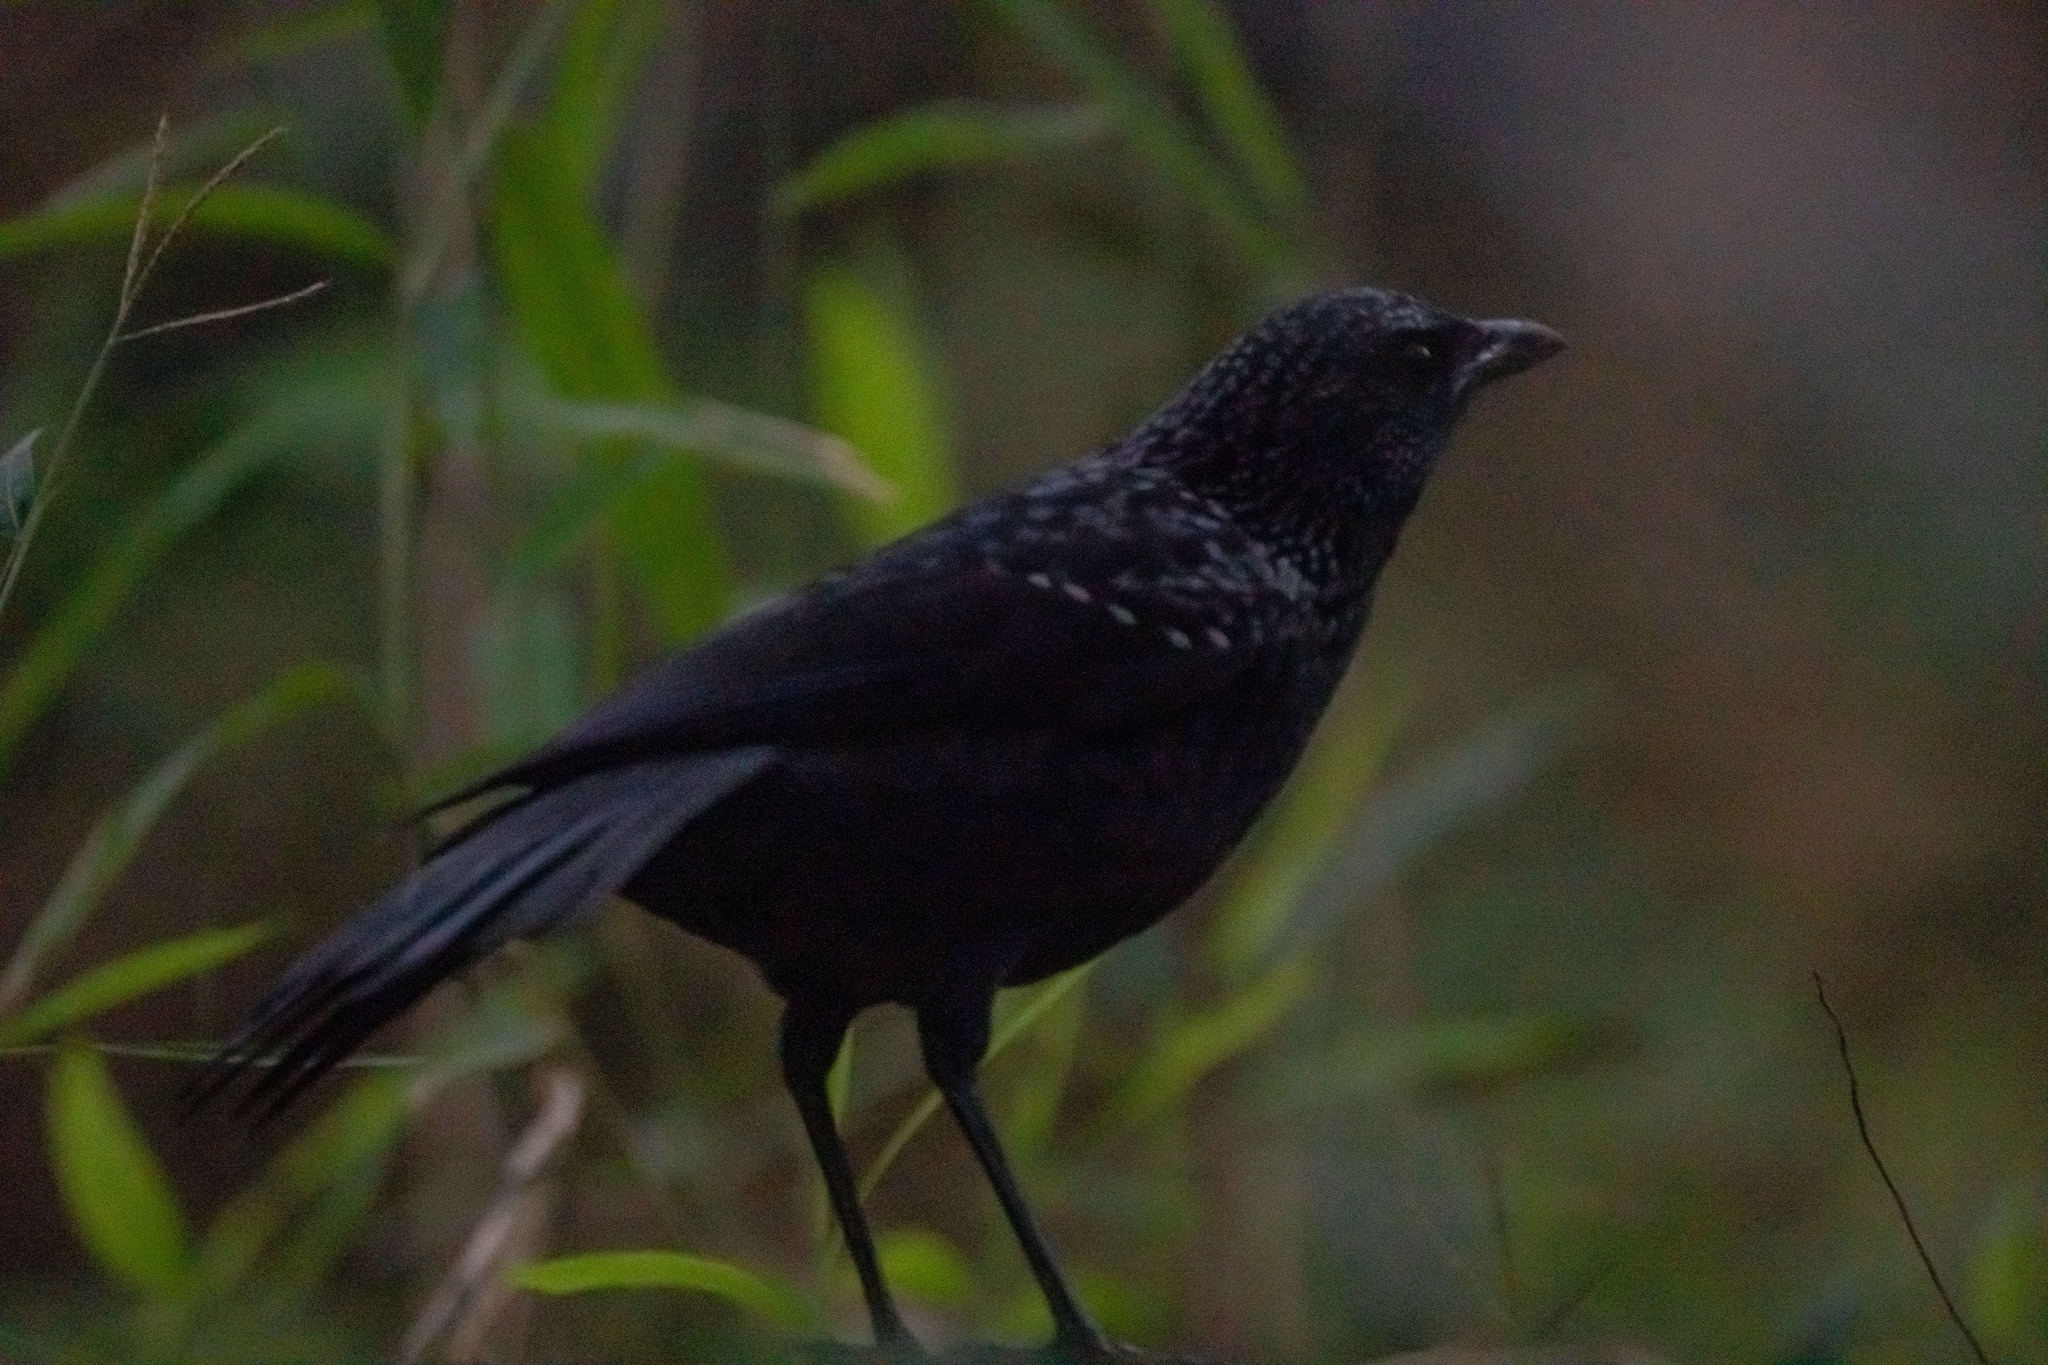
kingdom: Animalia
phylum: Chordata
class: Aves
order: Passeriformes
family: Muscicapidae
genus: Myophonus
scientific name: Myophonus caeruleus
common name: Blue whistling-thrush
